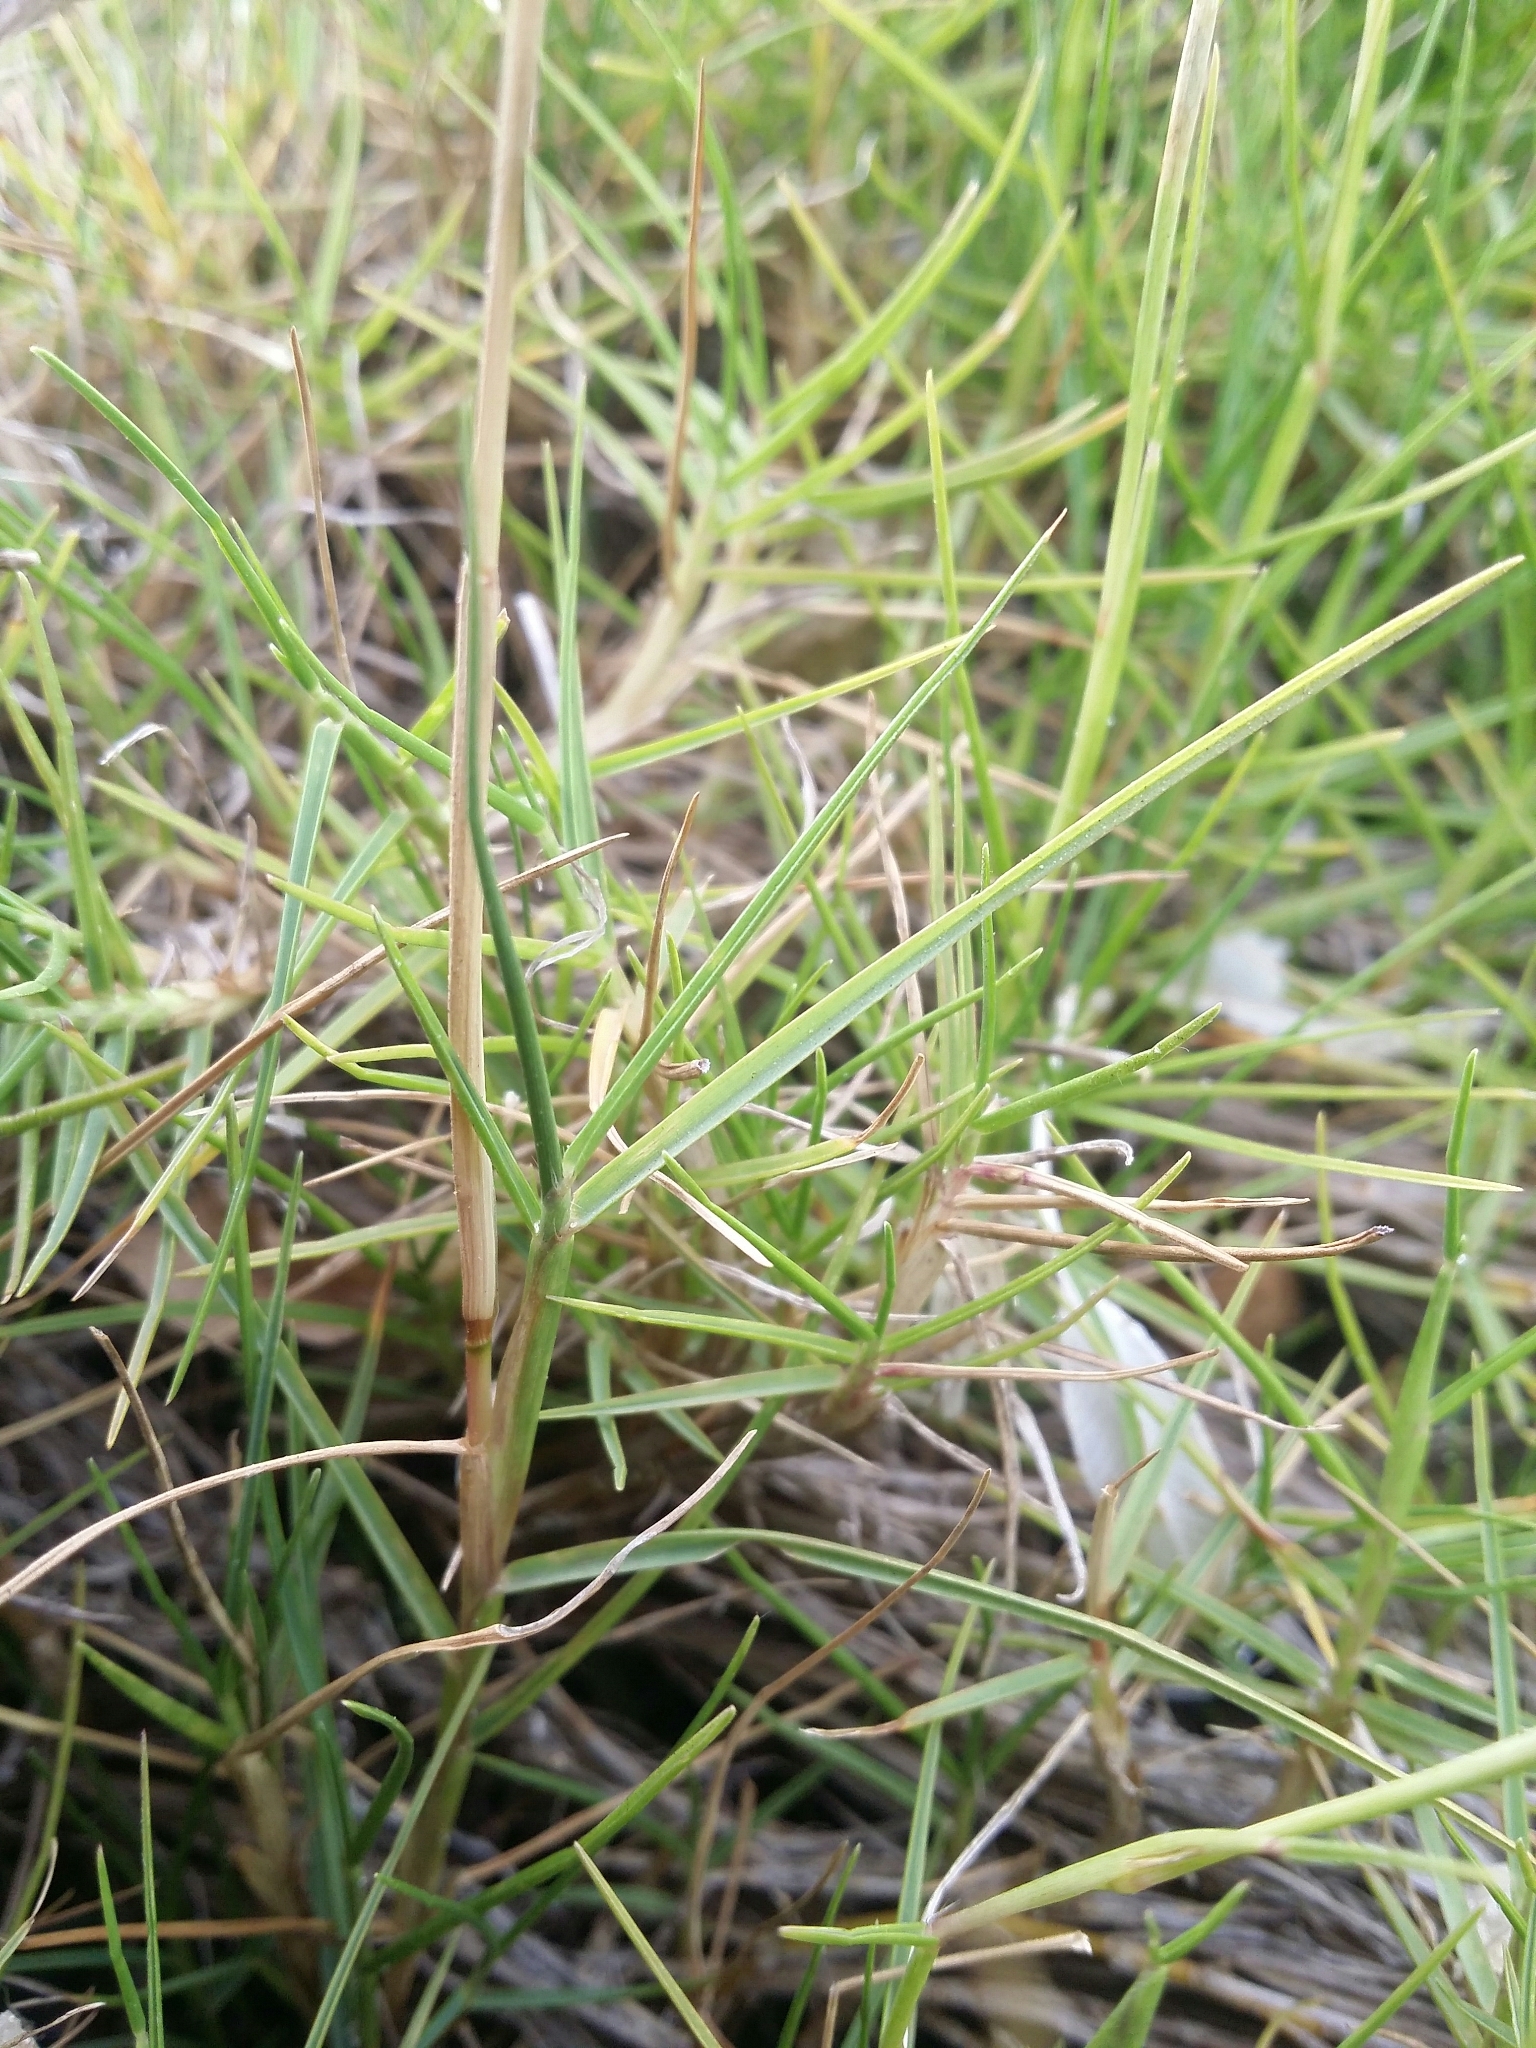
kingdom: Plantae
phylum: Tracheophyta
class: Liliopsida
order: Poales
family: Poaceae
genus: Paspalum
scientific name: Paspalum vaginatum
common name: Seashore paspalum
